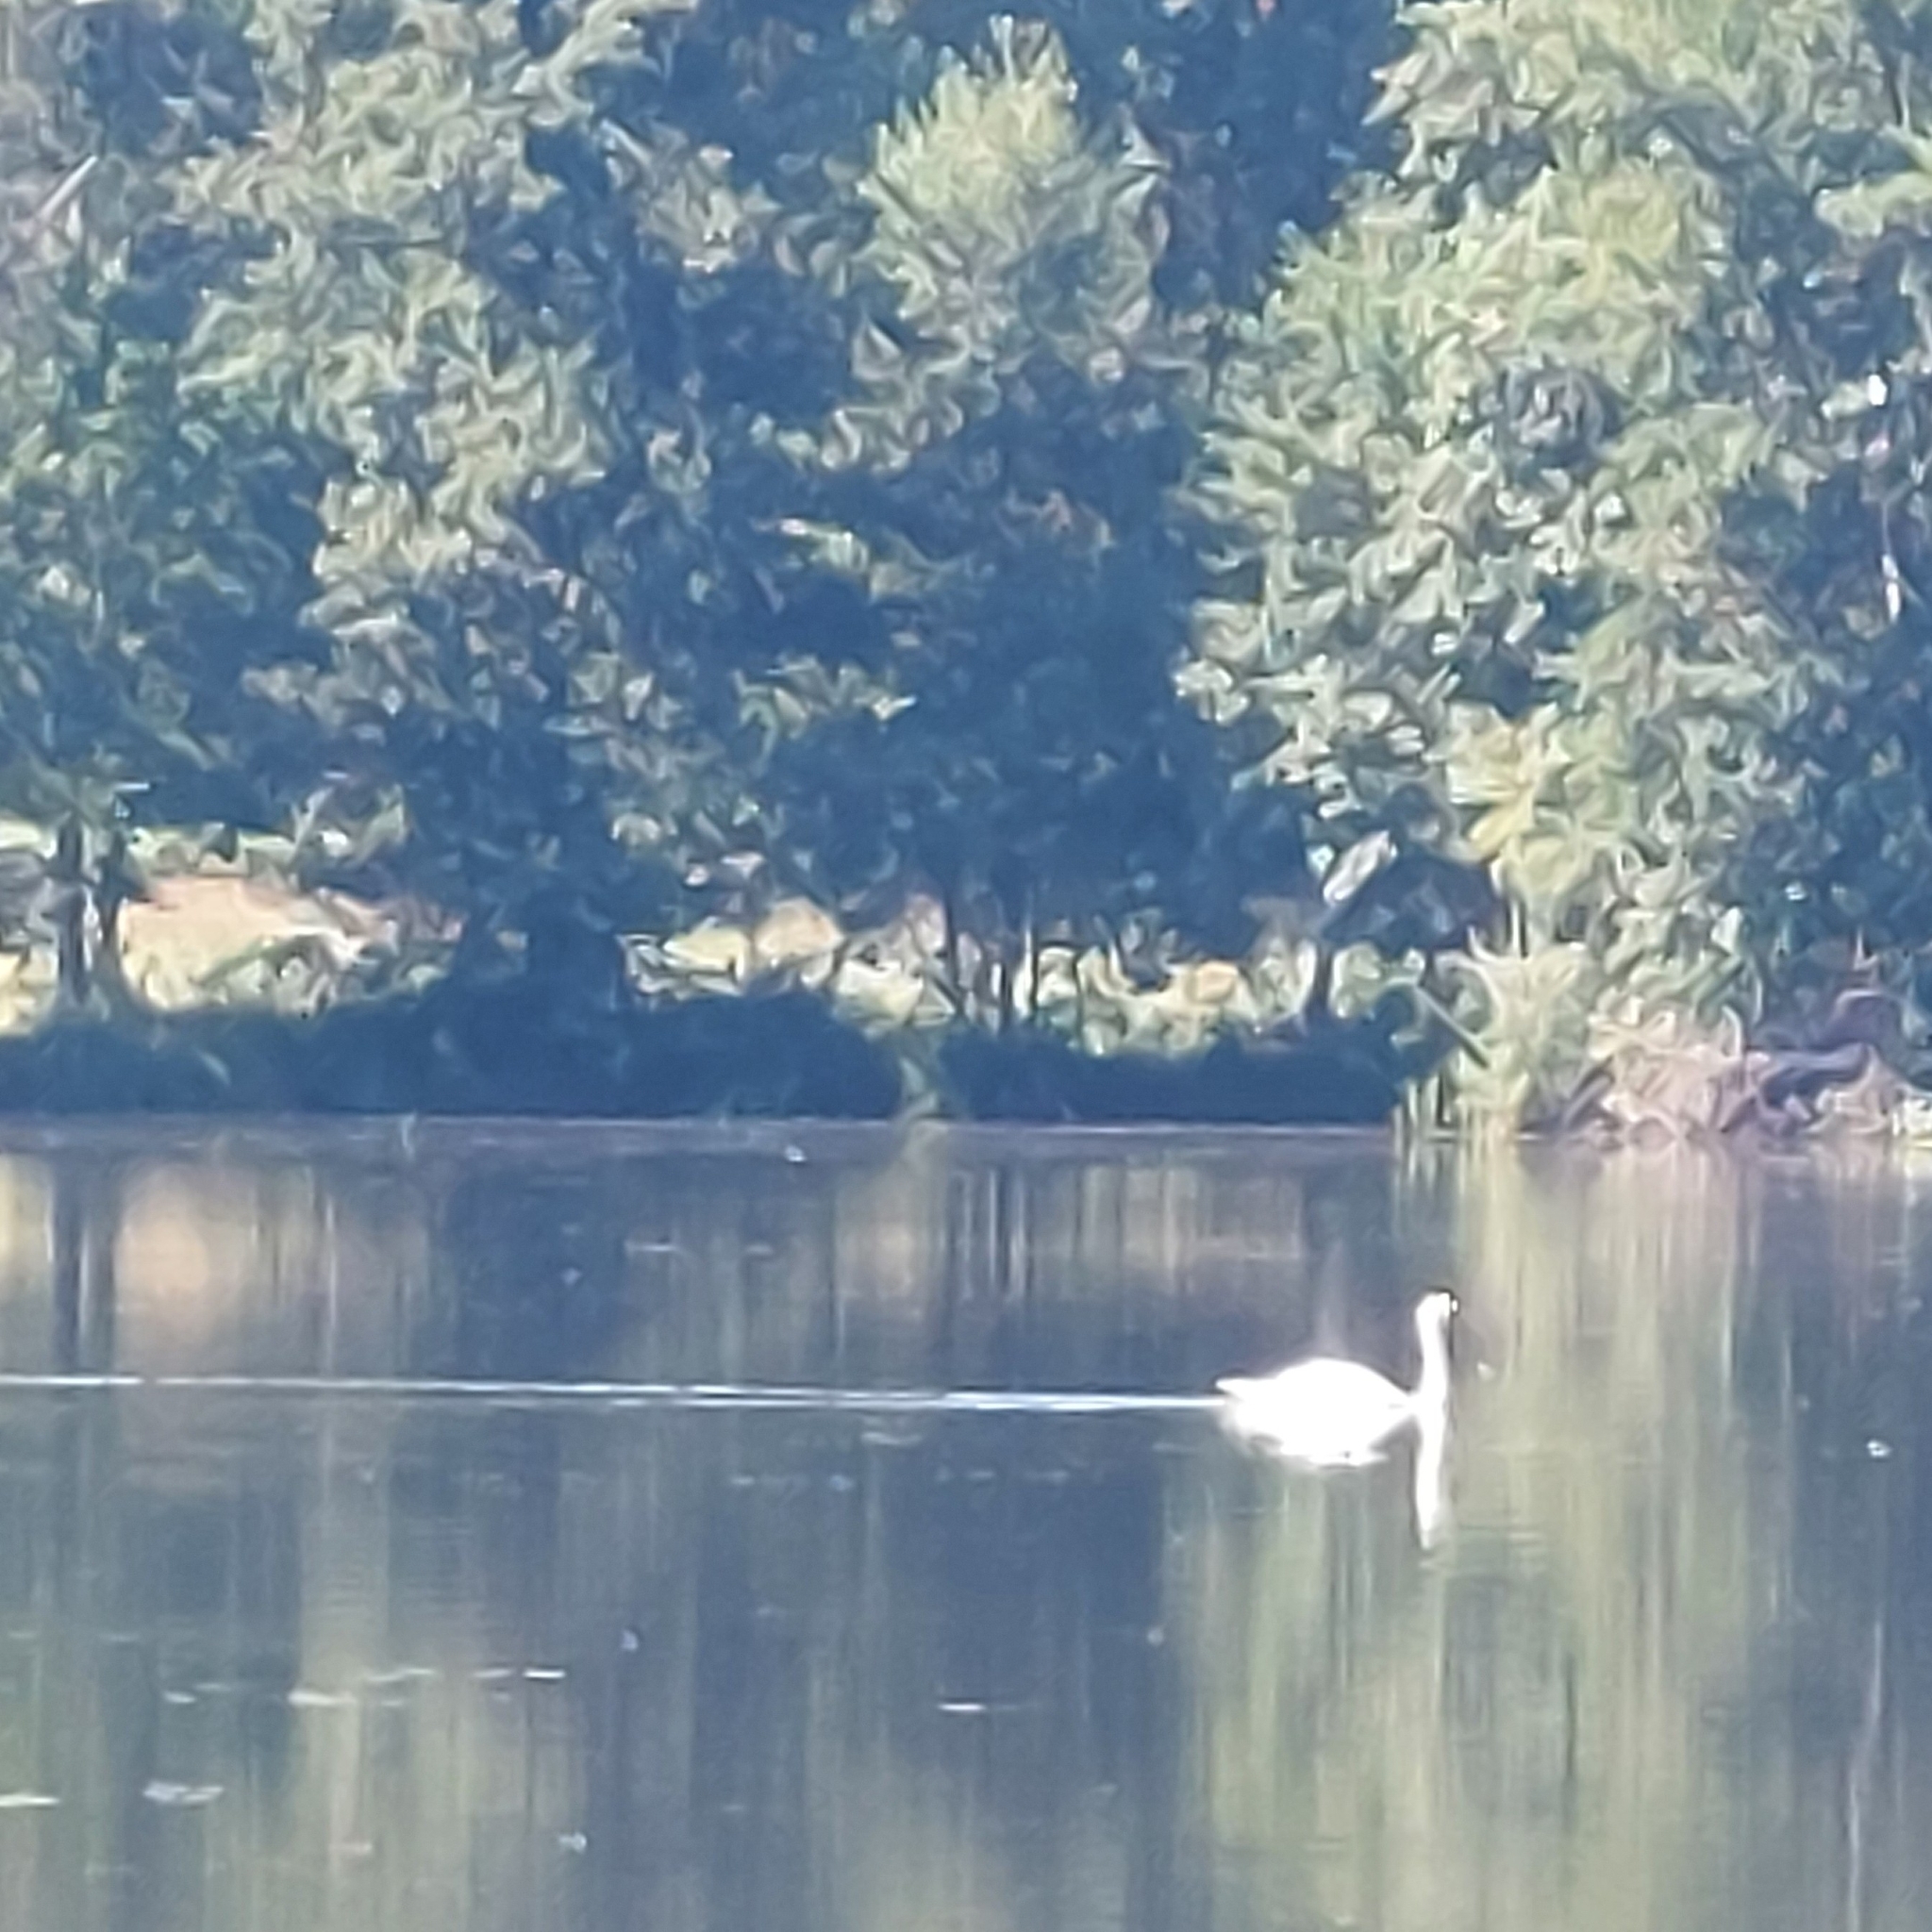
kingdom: Animalia
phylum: Chordata
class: Aves
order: Anseriformes
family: Anatidae
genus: Cygnus
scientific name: Cygnus olor
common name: Mute swan
